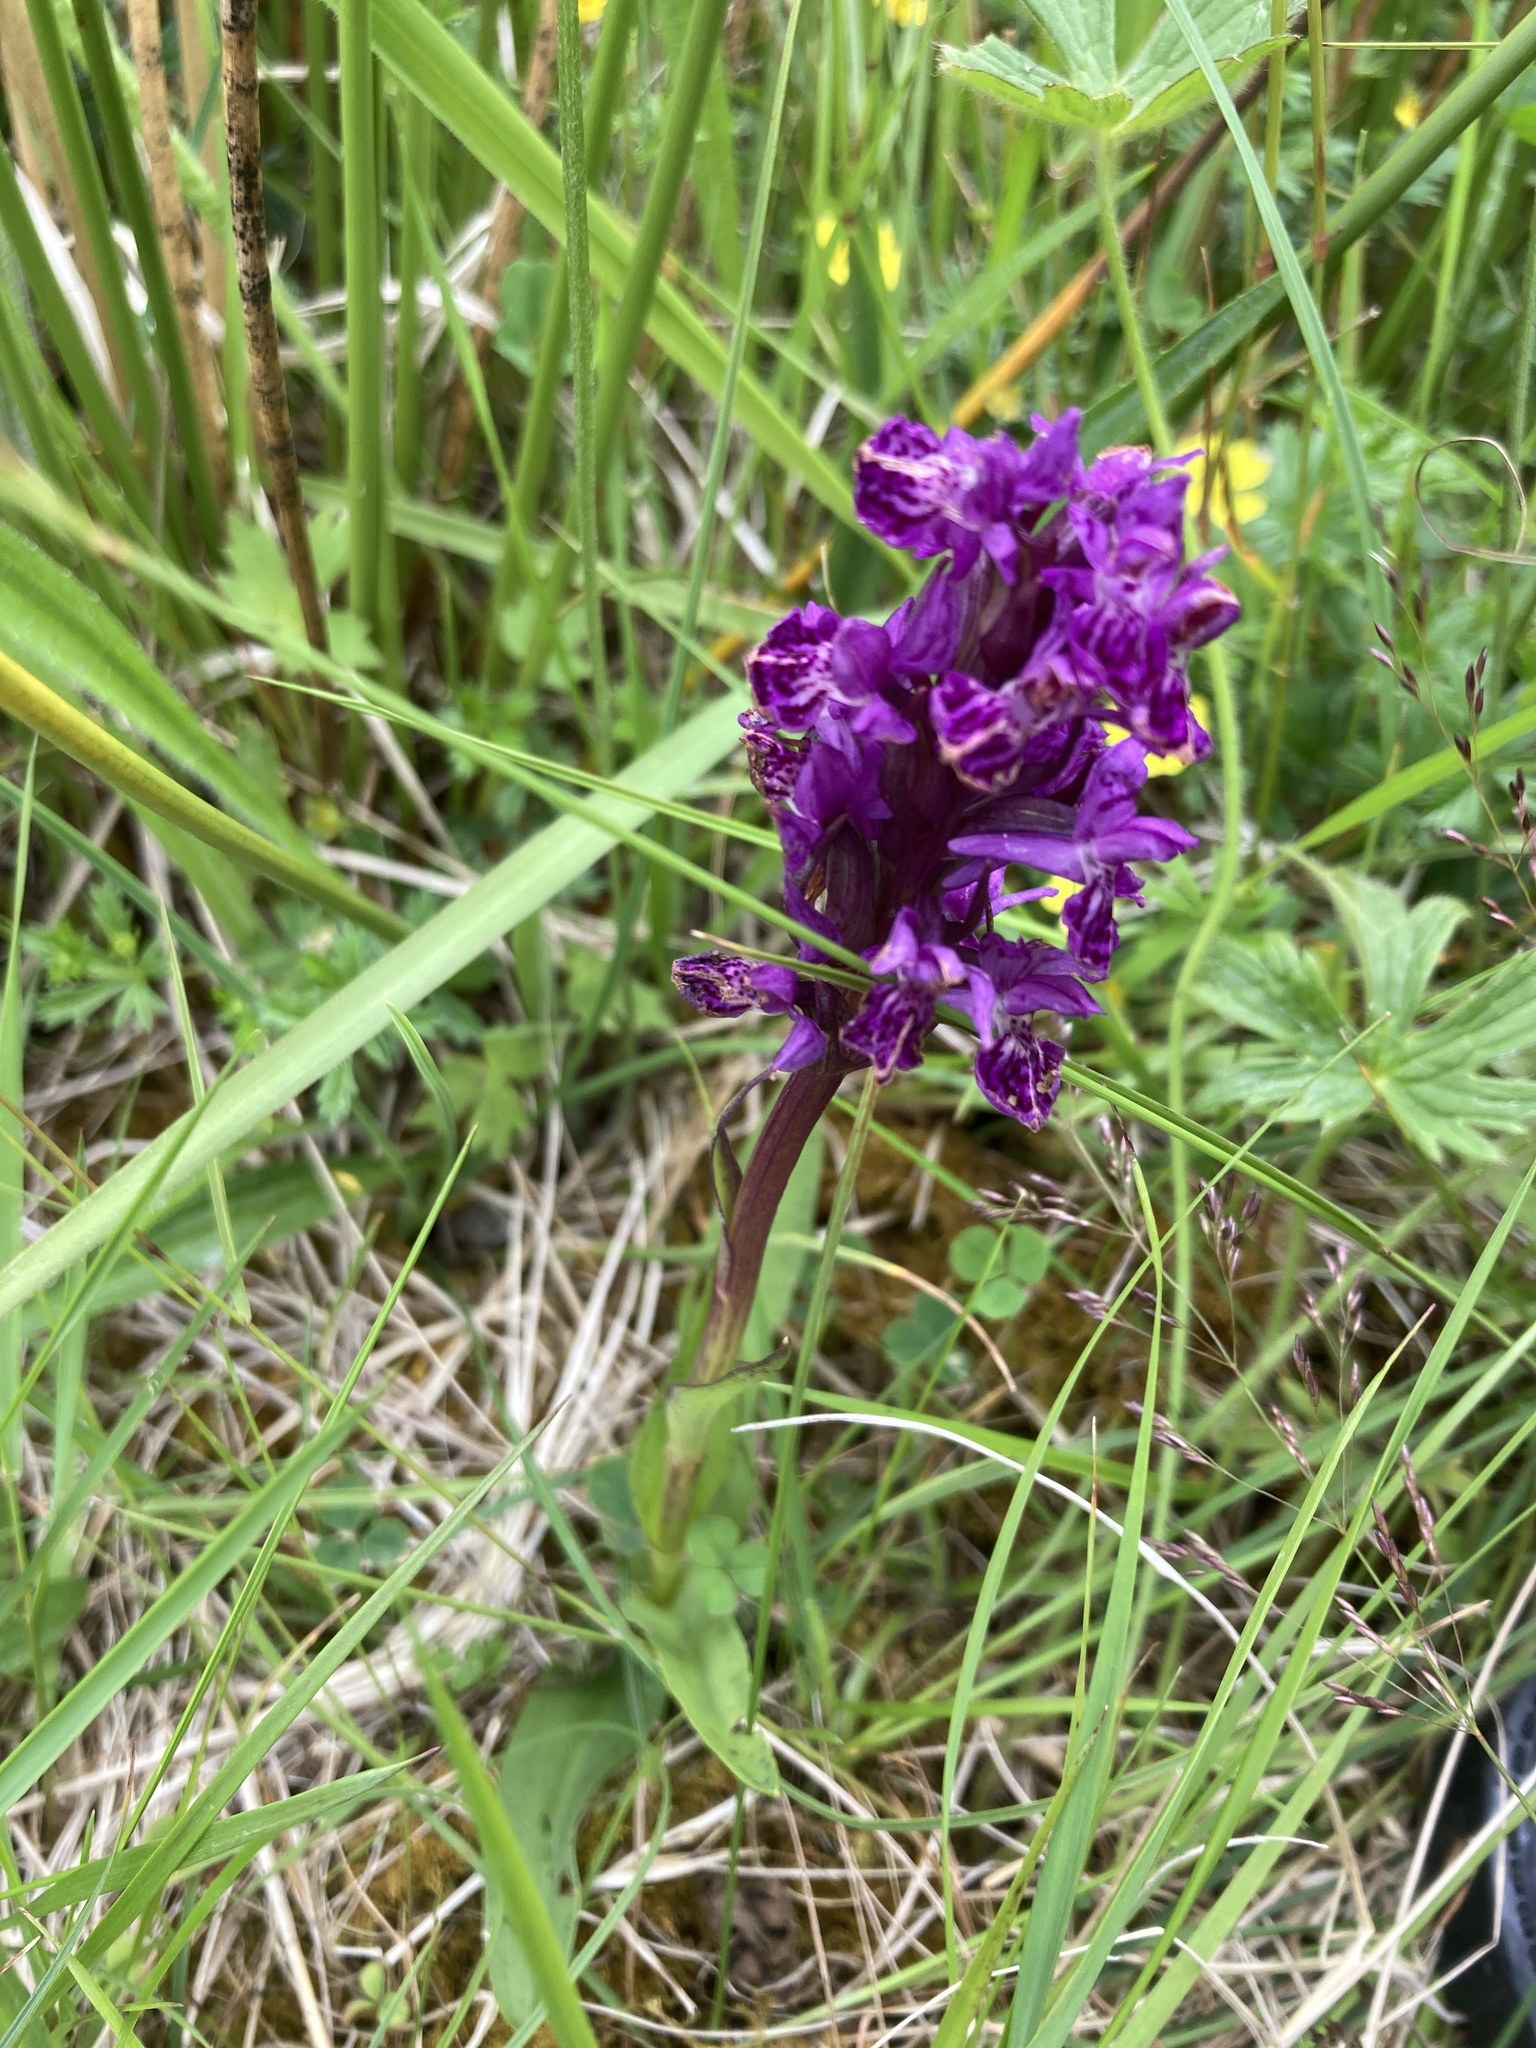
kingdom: Plantae
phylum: Tracheophyta
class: Liliopsida
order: Asparagales
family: Orchidaceae
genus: Dactylorhiza
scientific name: Dactylorhiza majalis
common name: Marsh orchid
